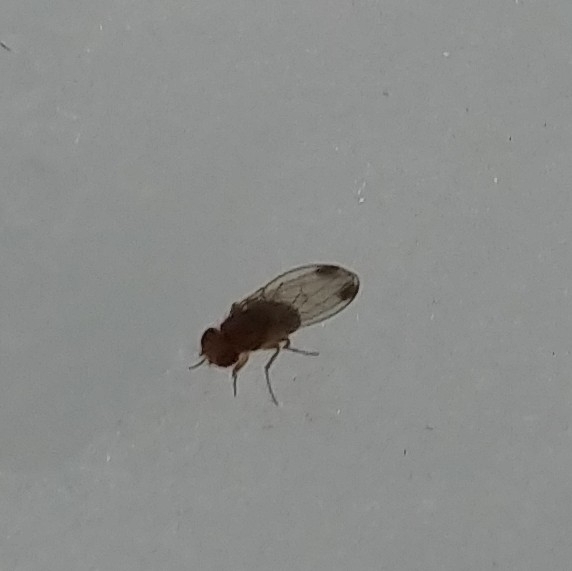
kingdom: Animalia
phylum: Arthropoda
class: Insecta
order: Diptera
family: Drosophilidae
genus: Drosophila
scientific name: Drosophila suzukii
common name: Spotted-wing drosophila
